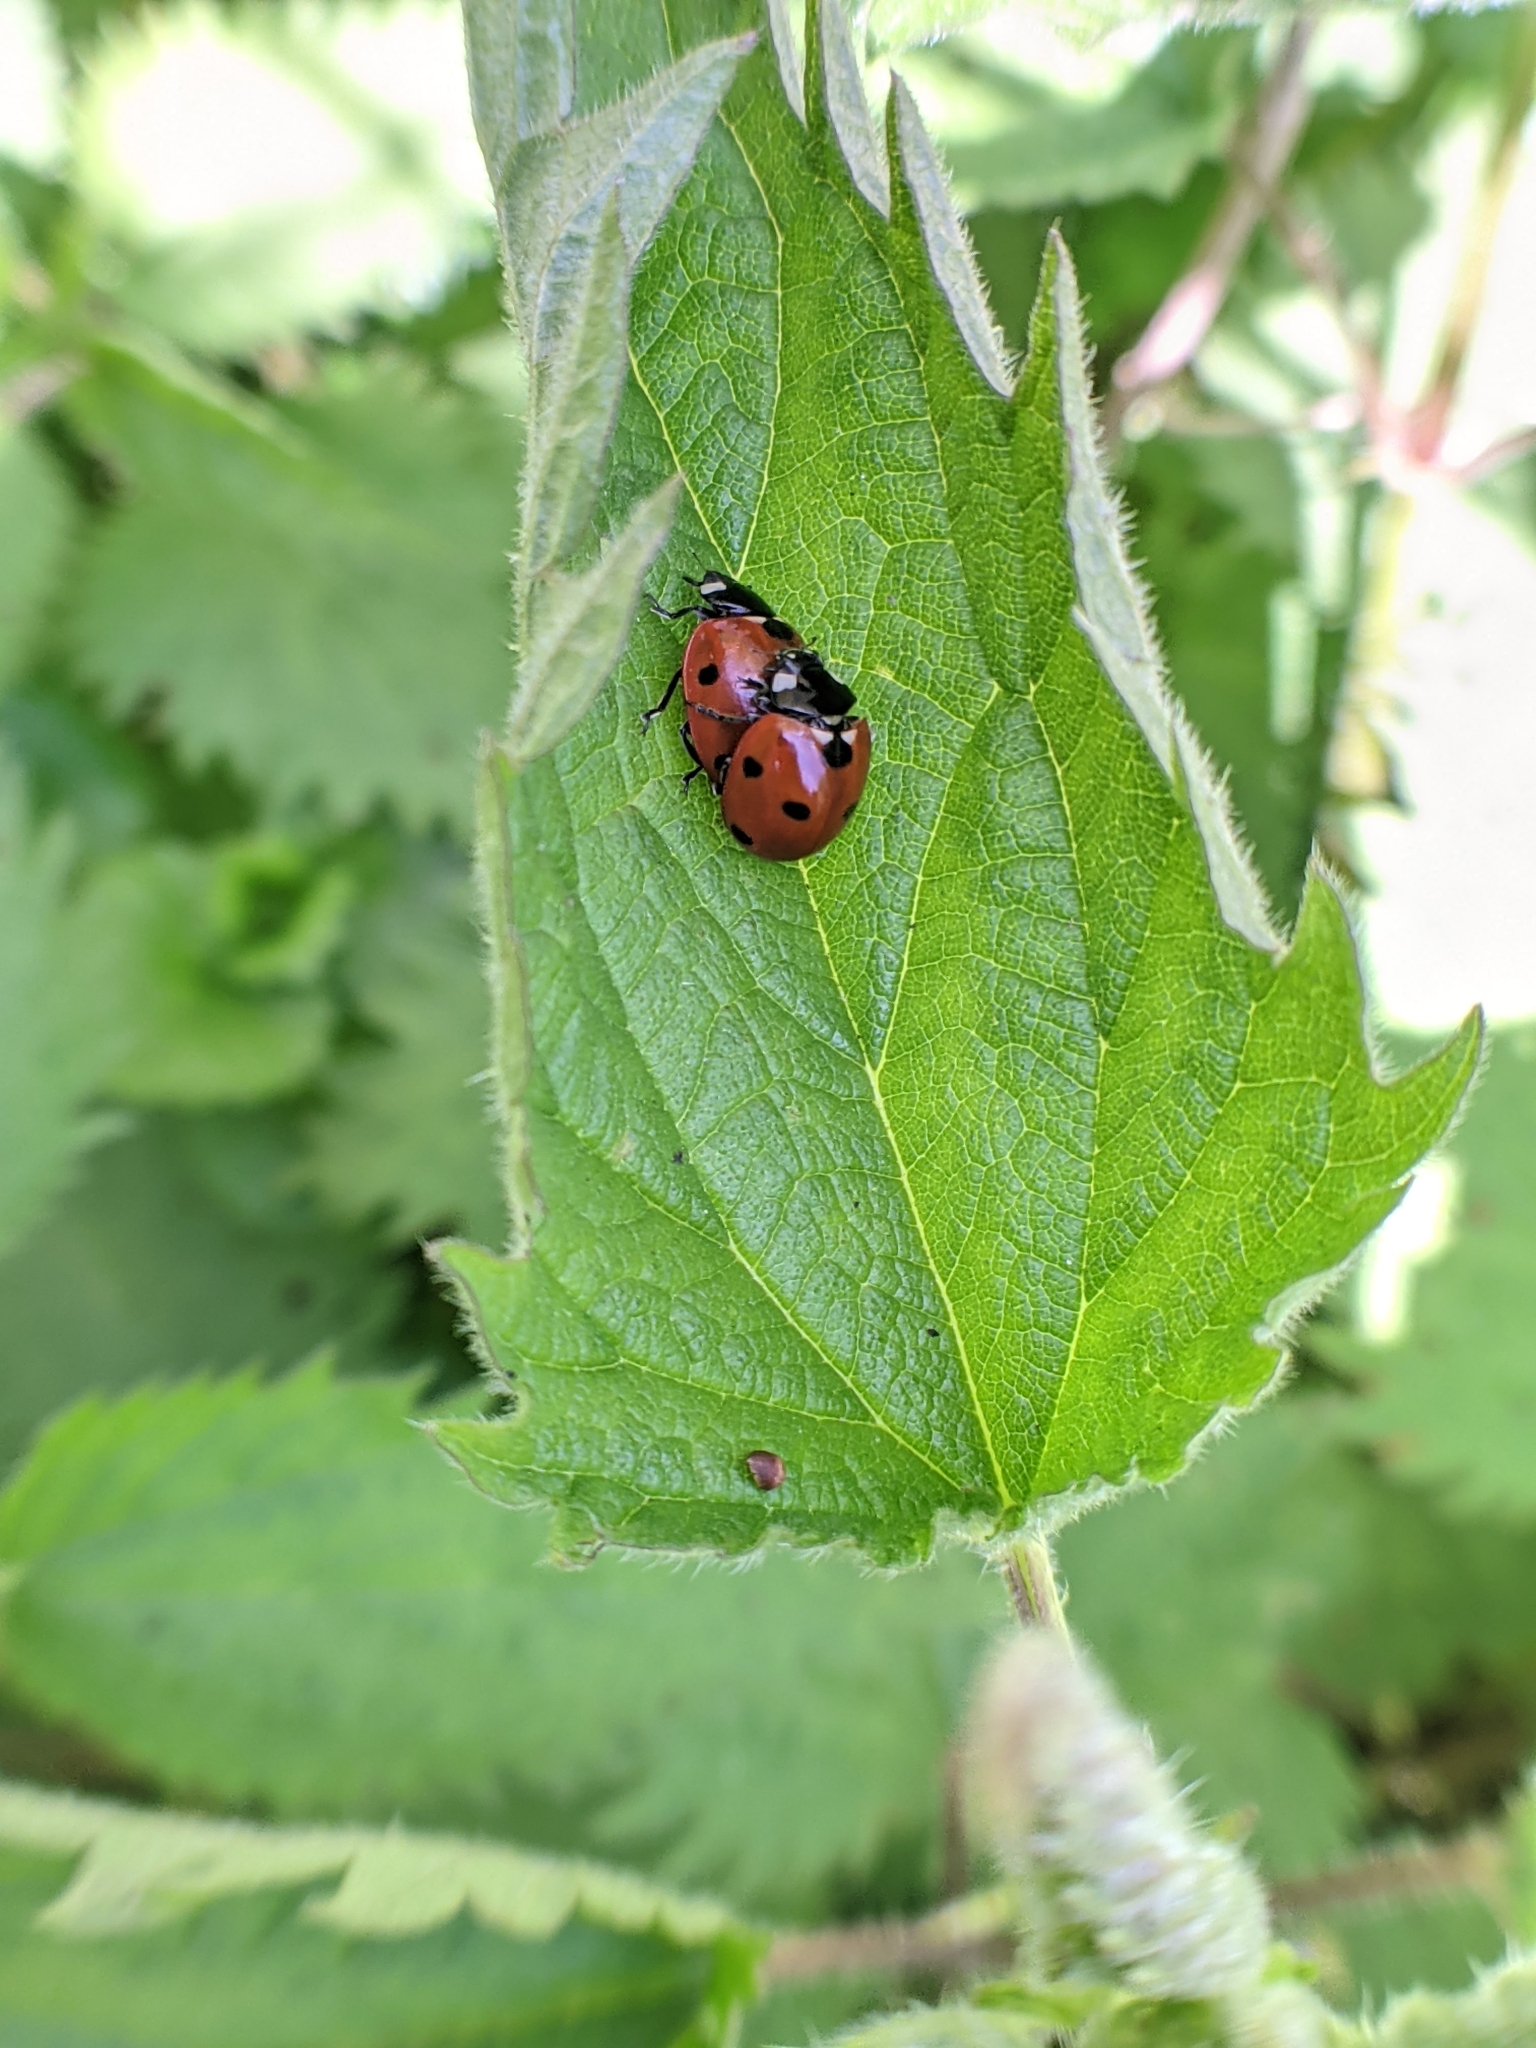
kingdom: Animalia
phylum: Arthropoda
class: Insecta
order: Coleoptera
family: Coccinellidae
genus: Coccinella
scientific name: Coccinella septempunctata
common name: Sevenspotted lady beetle
